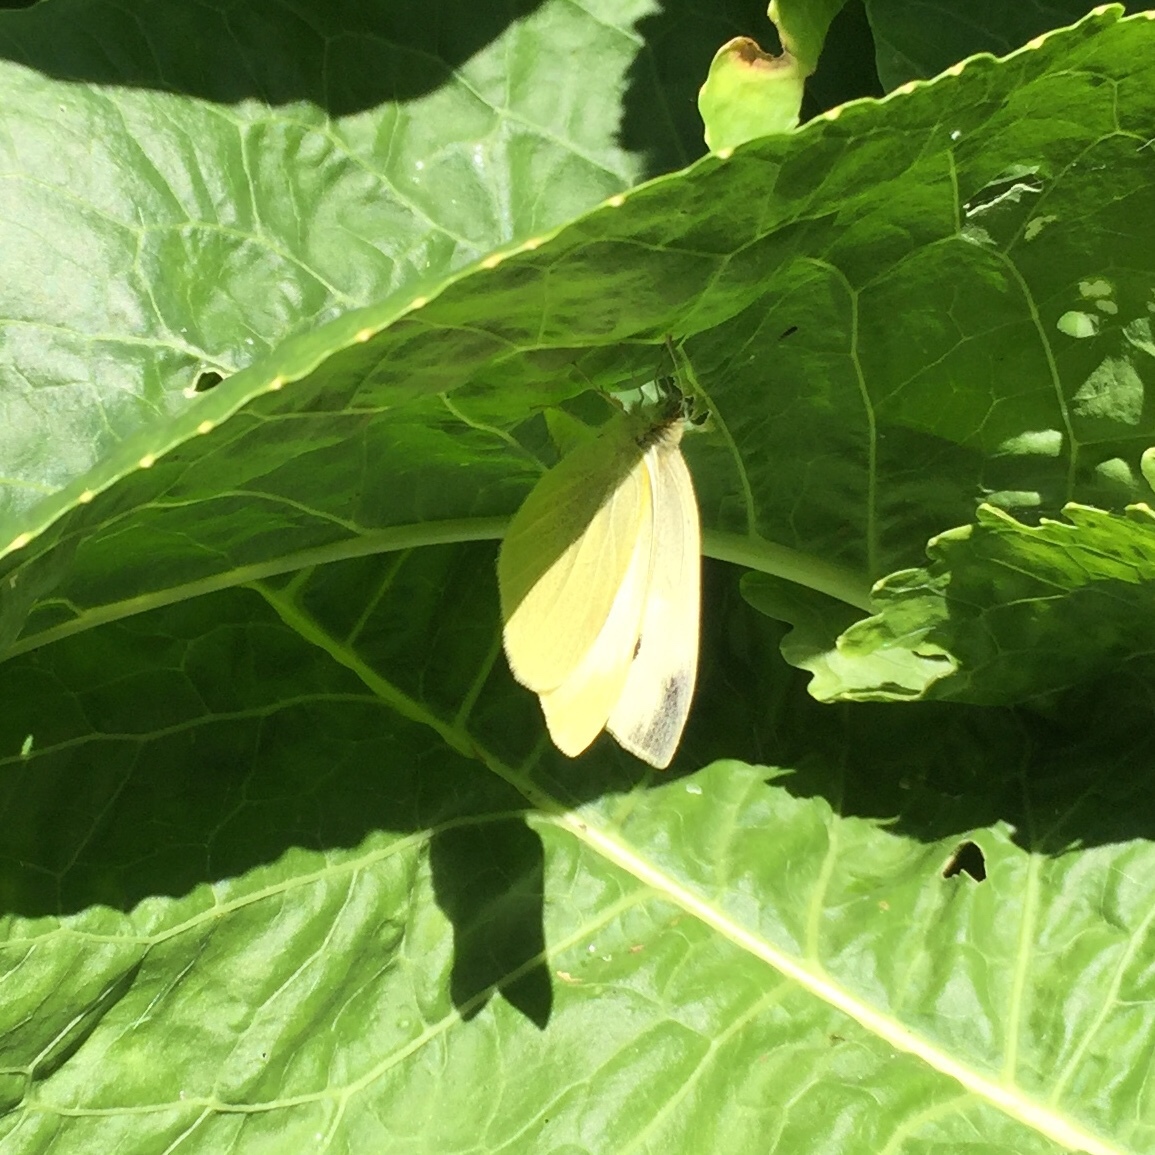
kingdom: Animalia
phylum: Arthropoda
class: Insecta
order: Lepidoptera
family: Pieridae
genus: Pieris
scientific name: Pieris rapae
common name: Small white
